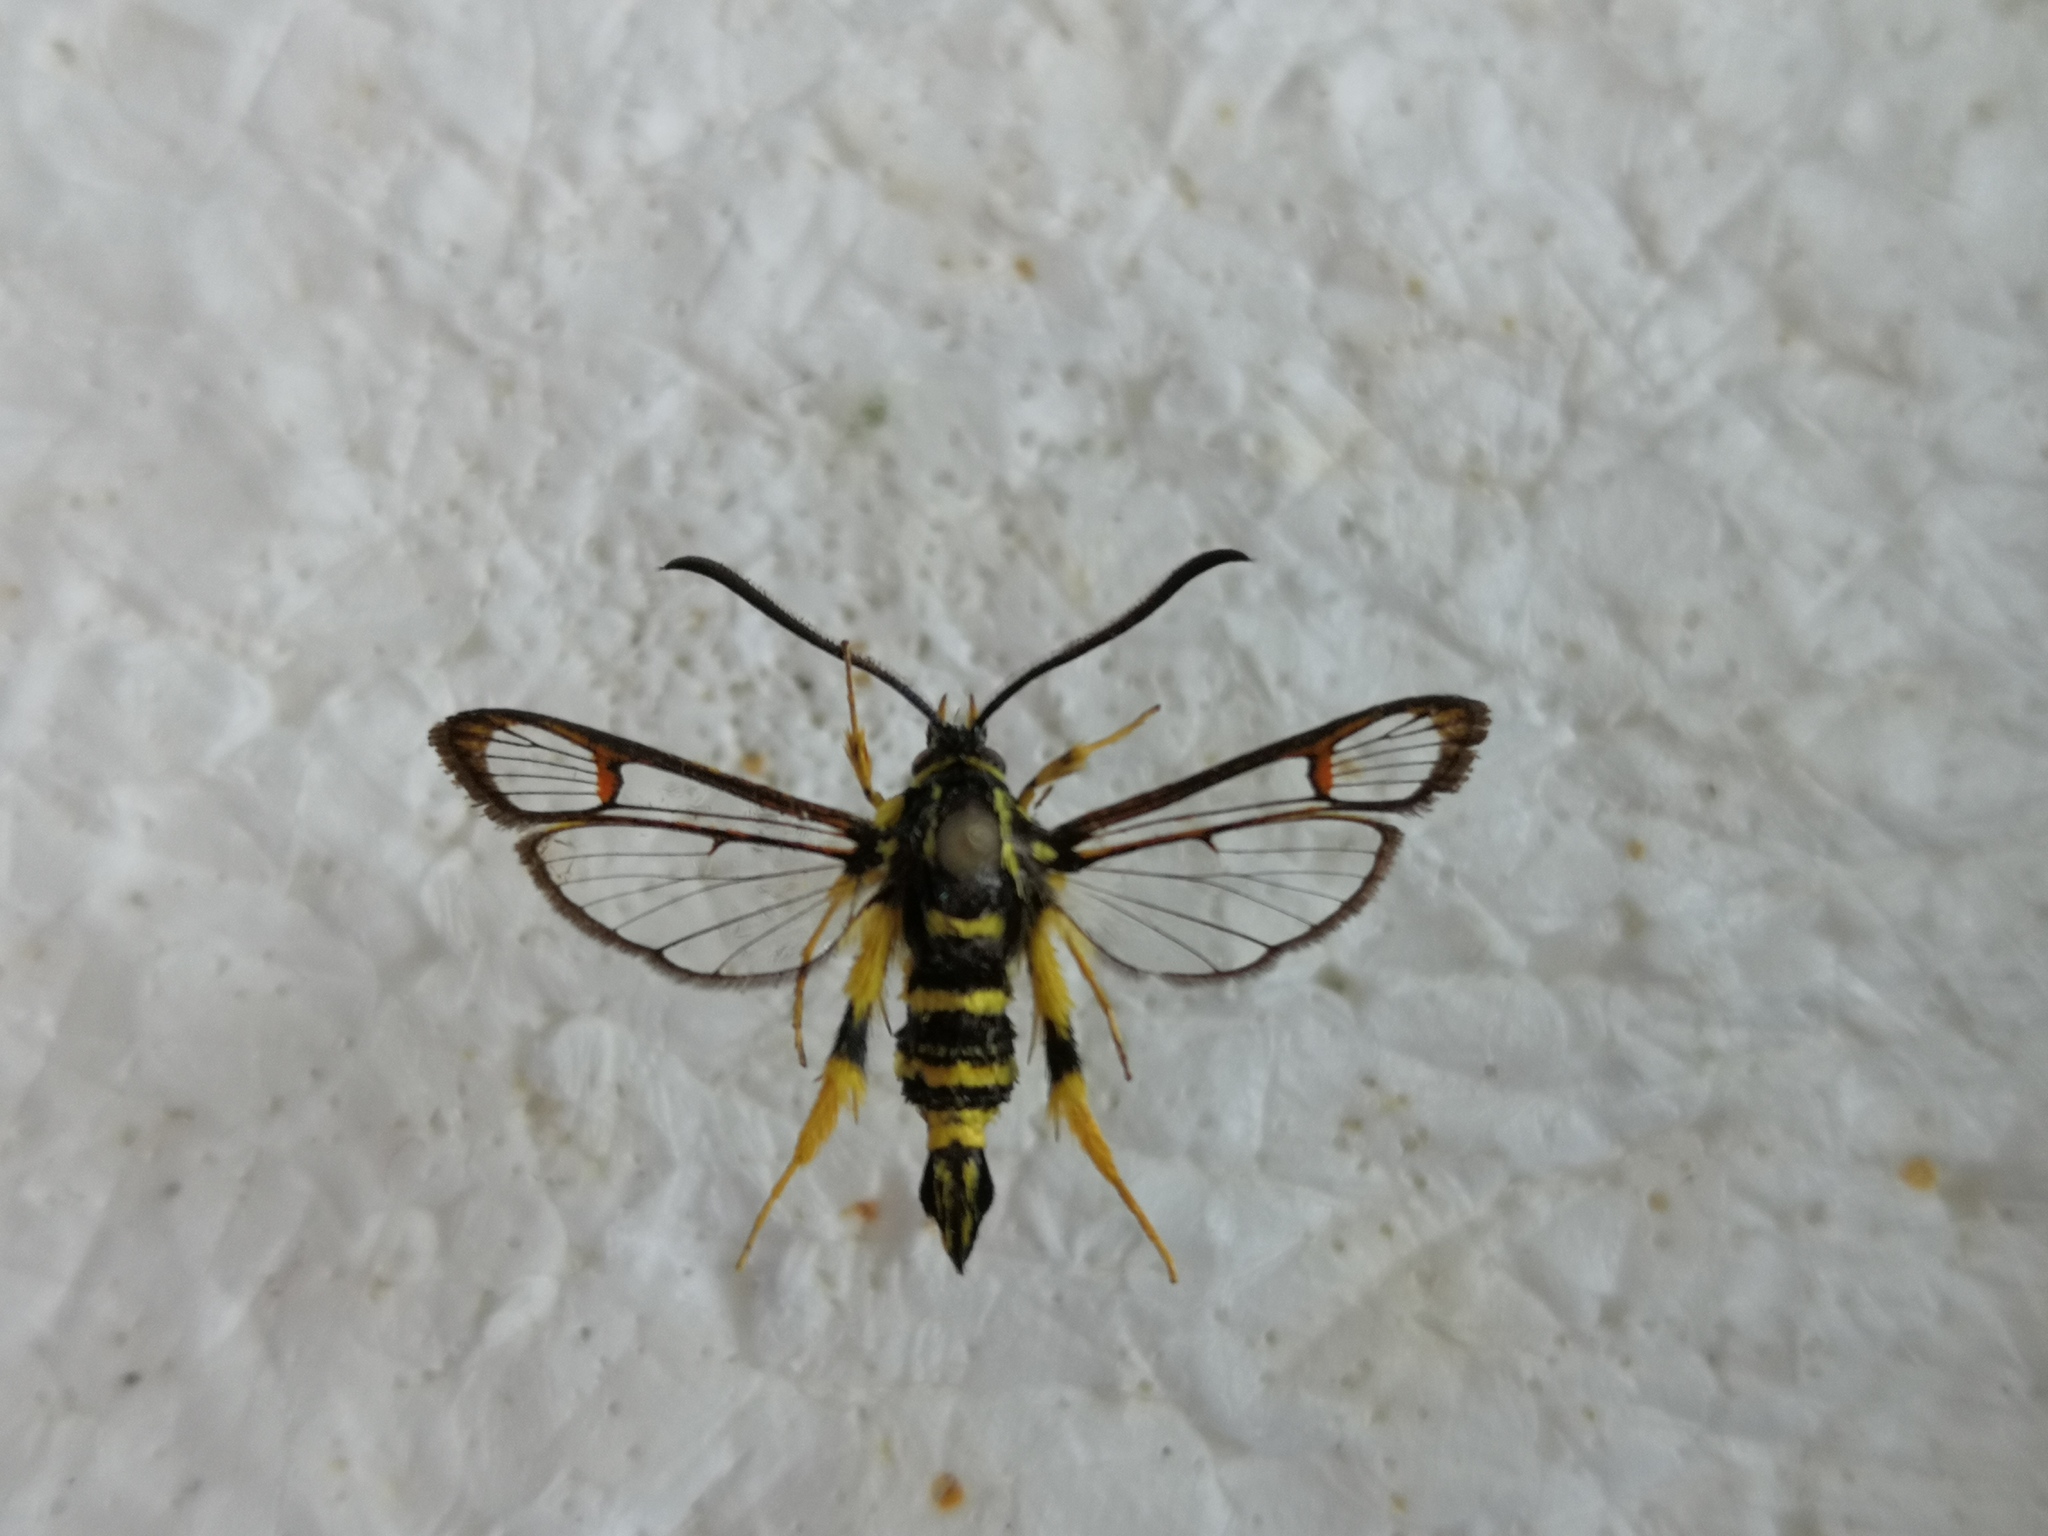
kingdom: Animalia
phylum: Arthropoda
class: Insecta
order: Lepidoptera
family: Sesiidae
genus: Synanthedon
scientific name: Synanthedon vespiformis
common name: Yellow-legged clearwing
